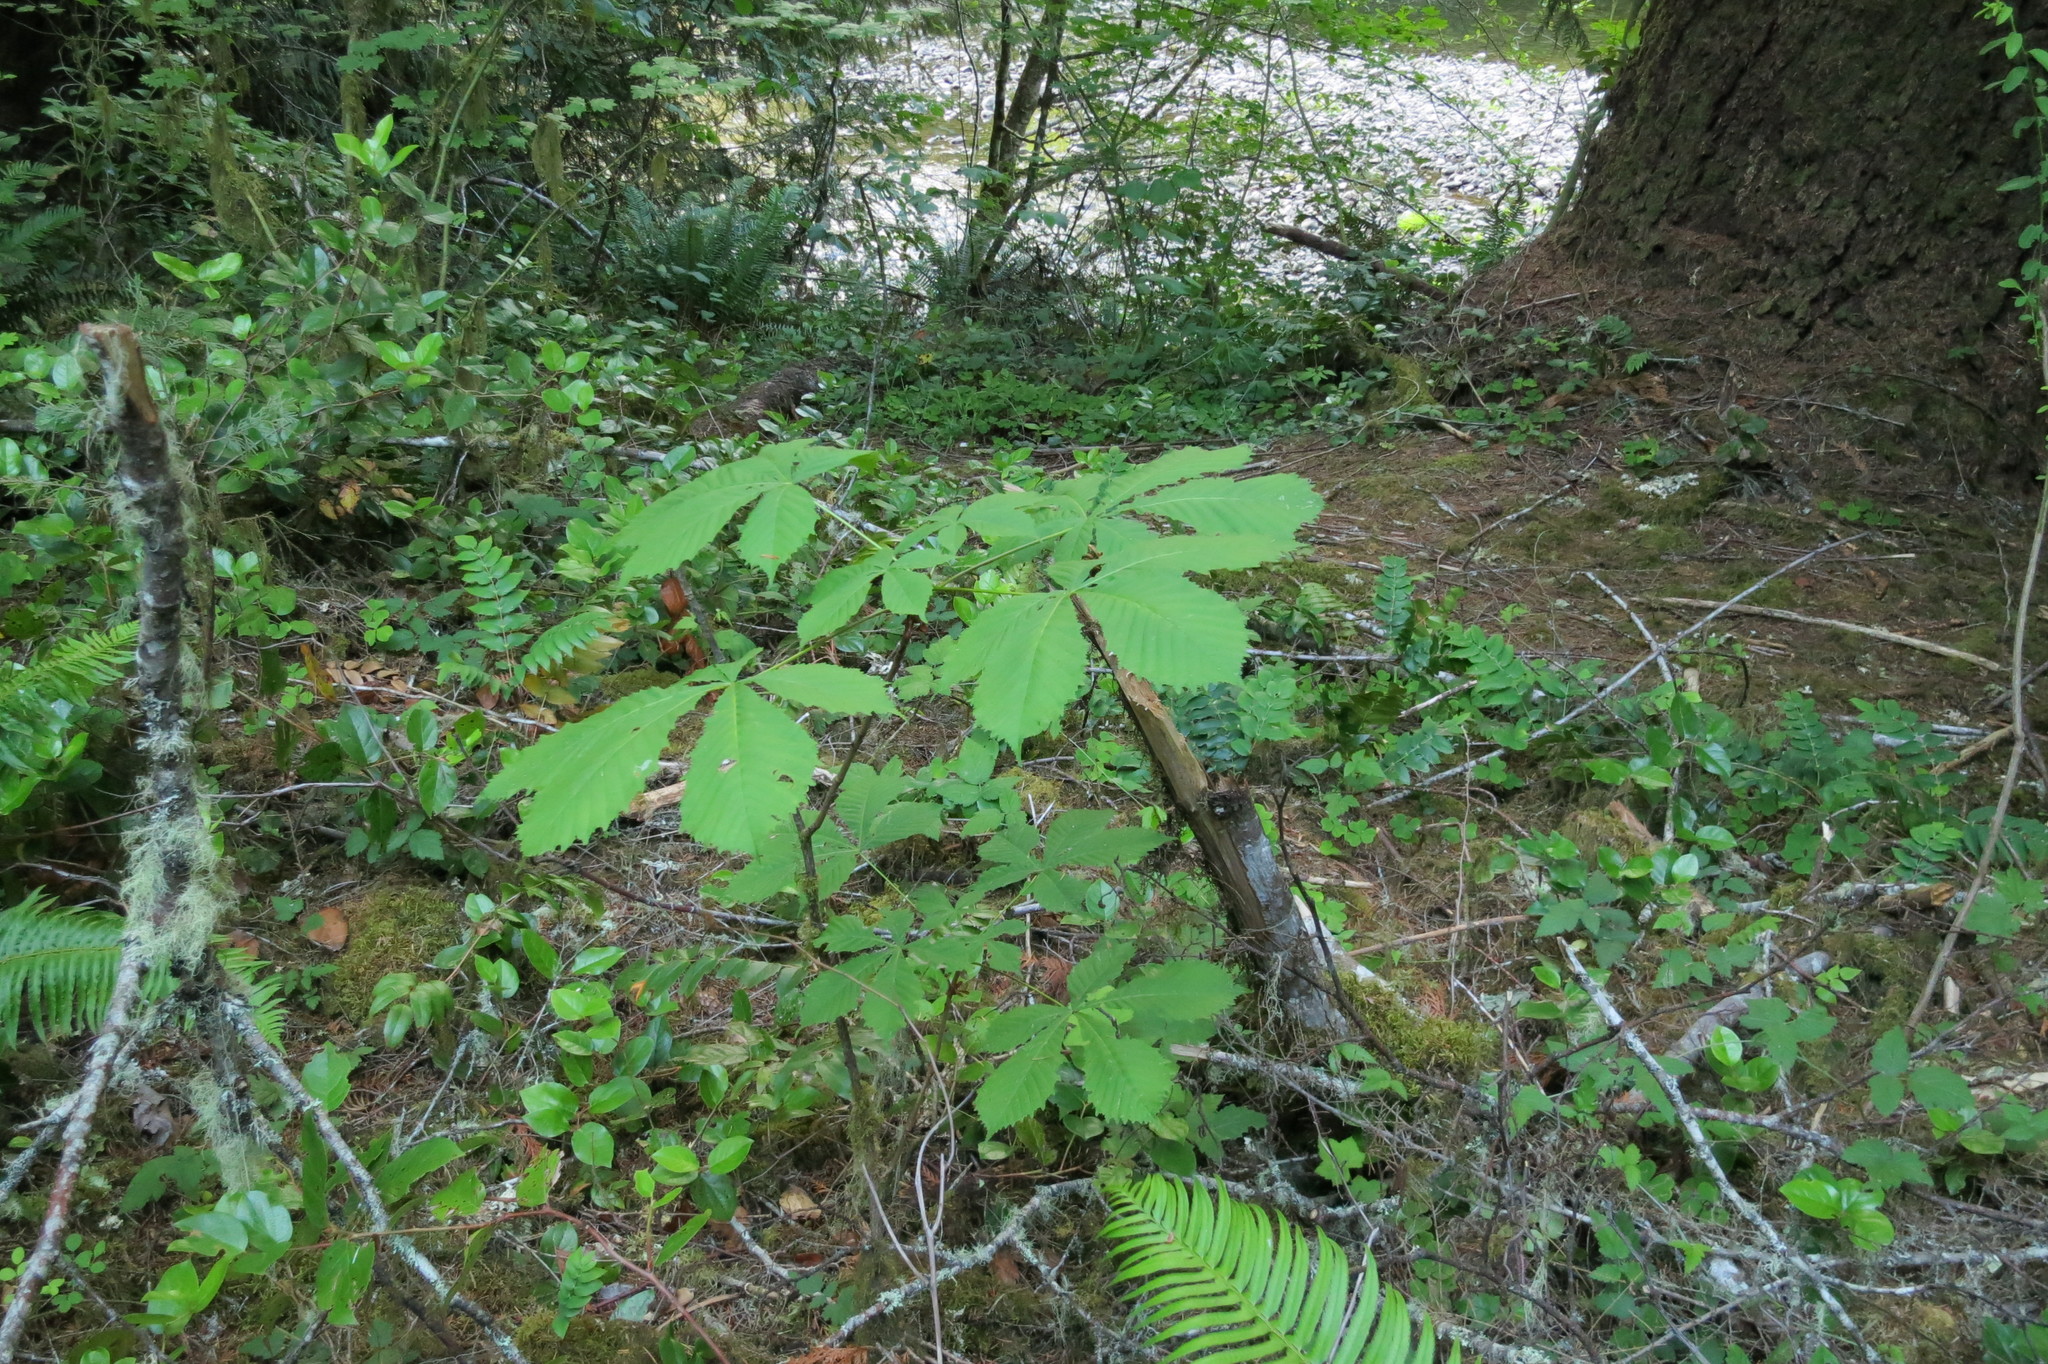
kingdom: Plantae
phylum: Tracheophyta
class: Magnoliopsida
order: Sapindales
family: Sapindaceae
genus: Aesculus
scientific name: Aesculus hippocastanum
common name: Horse-chestnut
